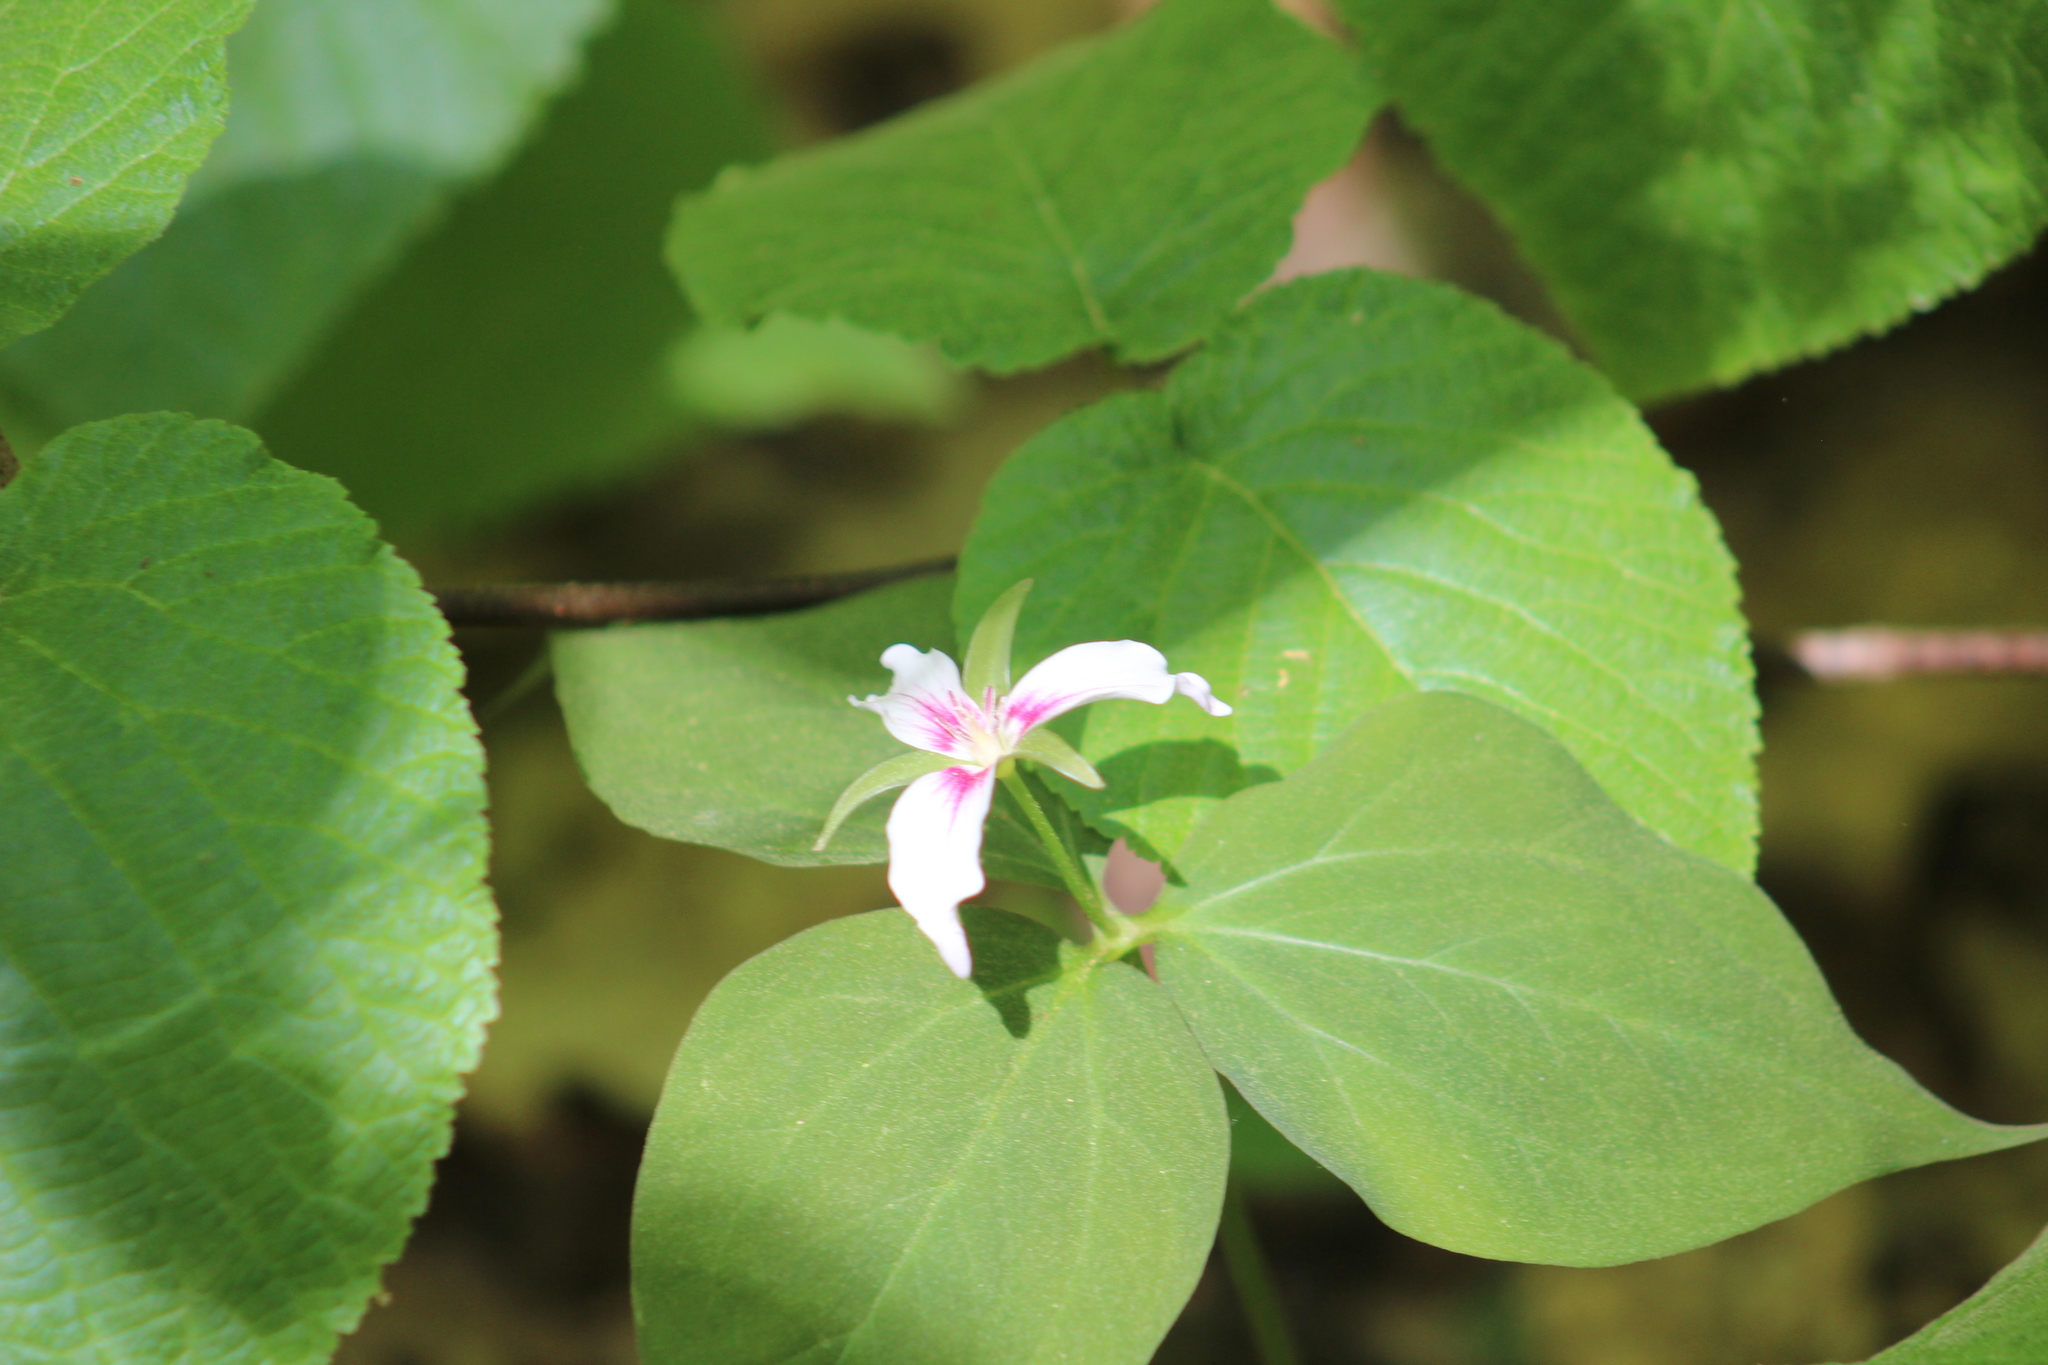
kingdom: Plantae
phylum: Tracheophyta
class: Liliopsida
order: Liliales
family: Melanthiaceae
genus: Trillium
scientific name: Trillium undulatum
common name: Paint trillium
